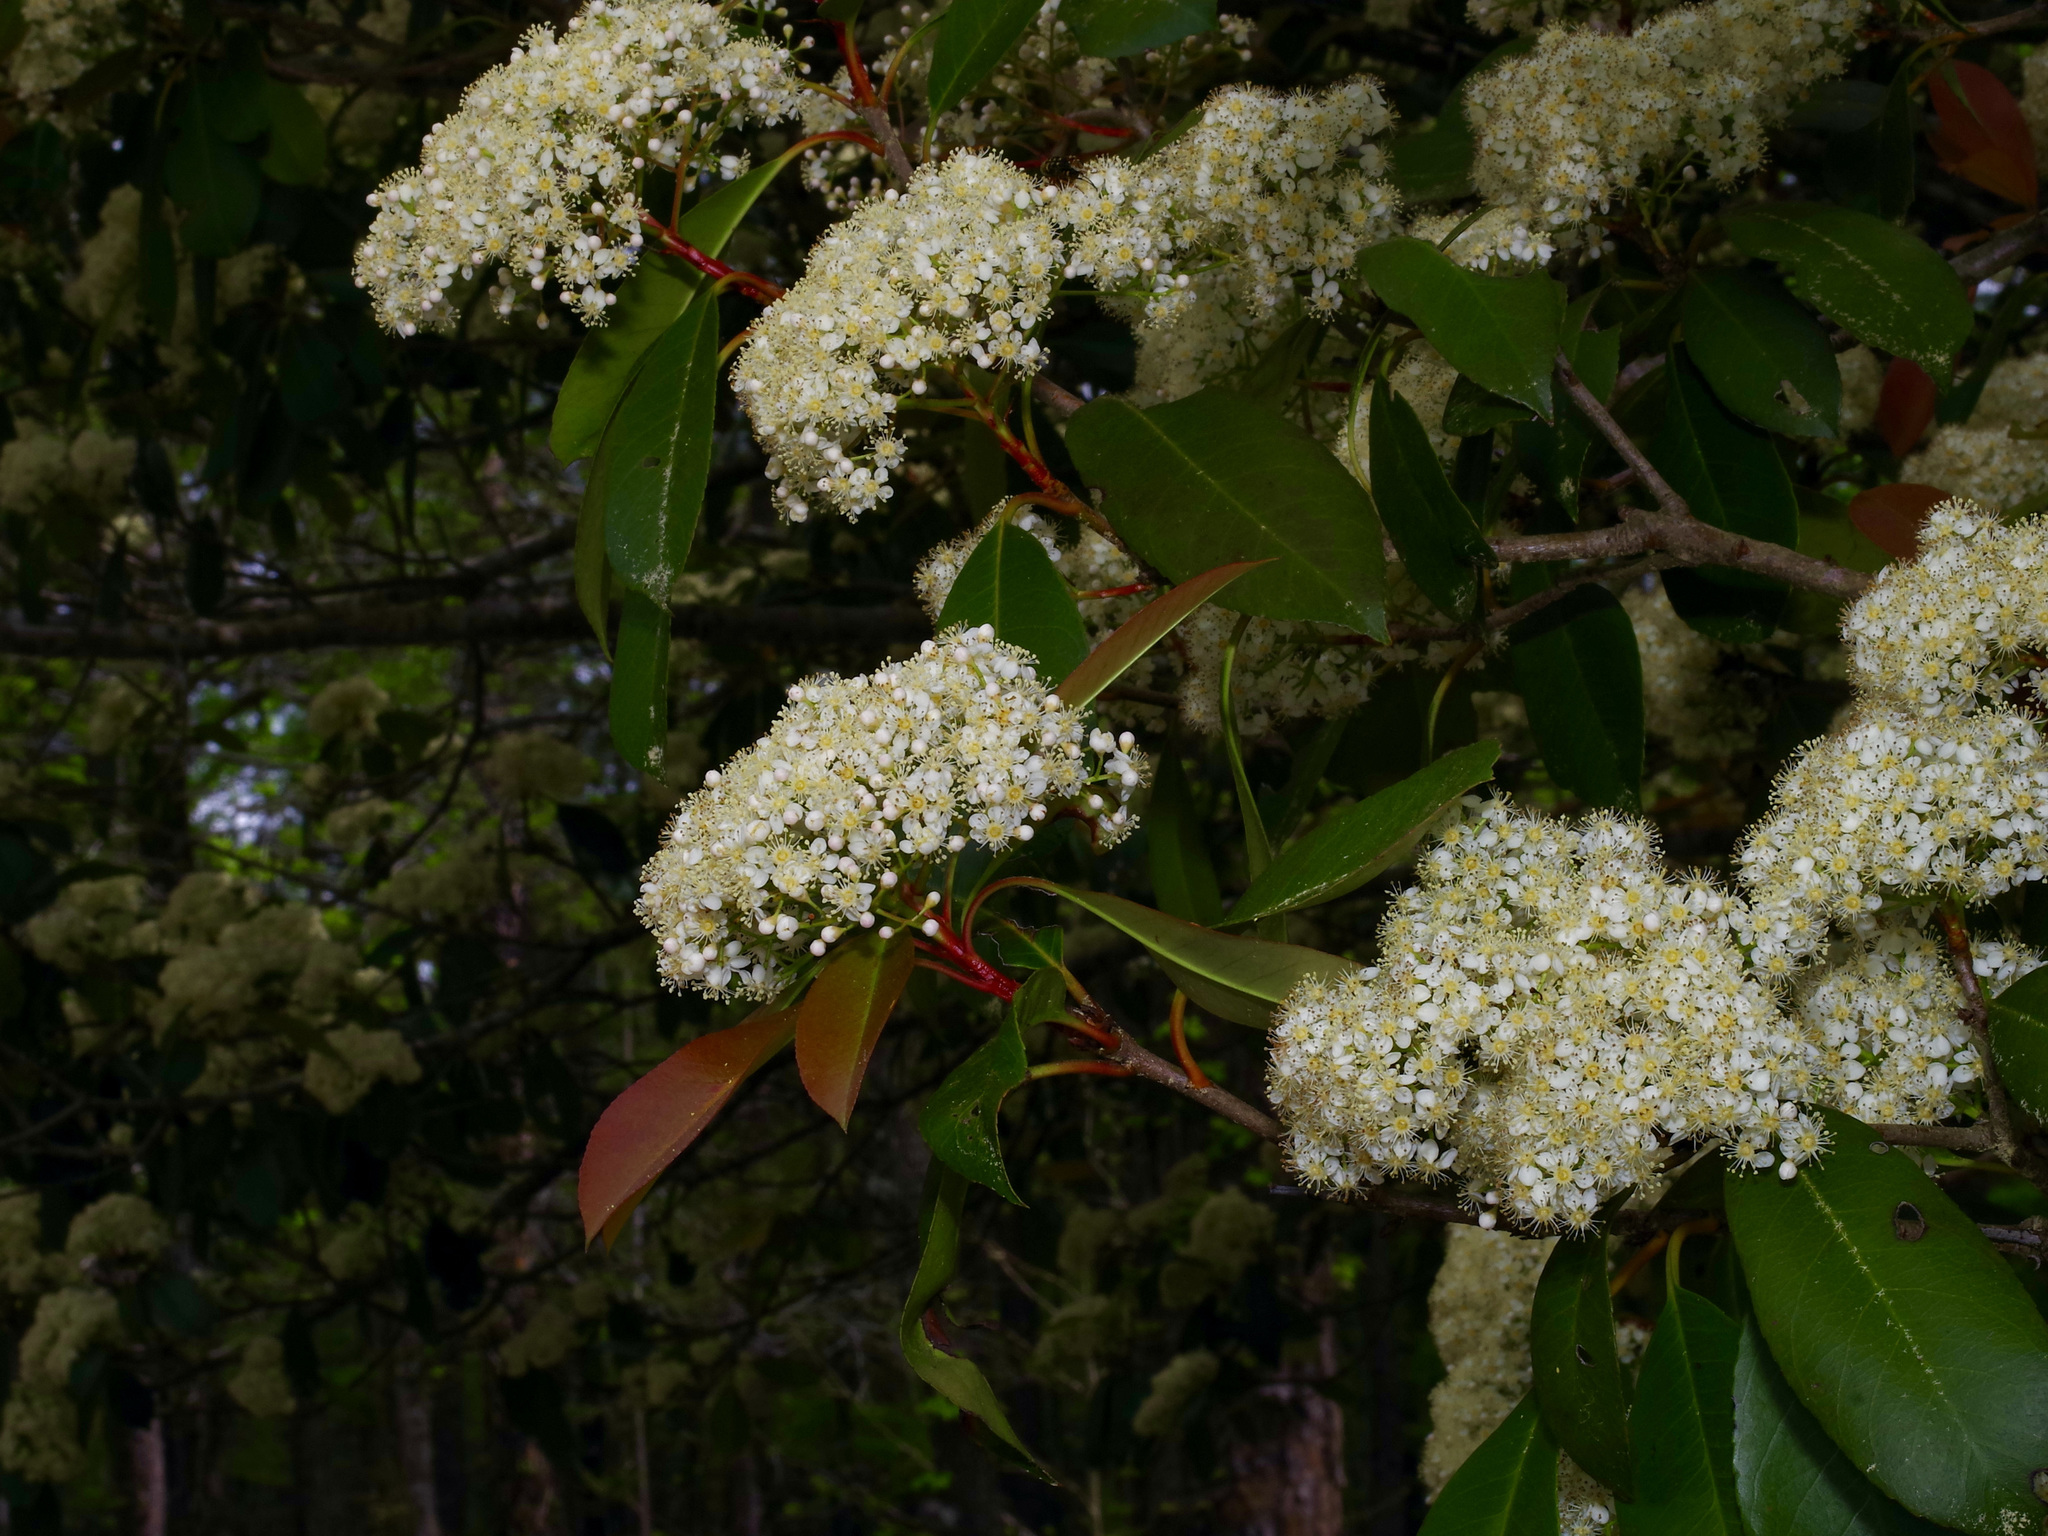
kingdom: Plantae
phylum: Tracheophyta
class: Magnoliopsida
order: Rosales
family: Rosaceae
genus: Photinia
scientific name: Photinia fraseri
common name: Fraser's photinia
